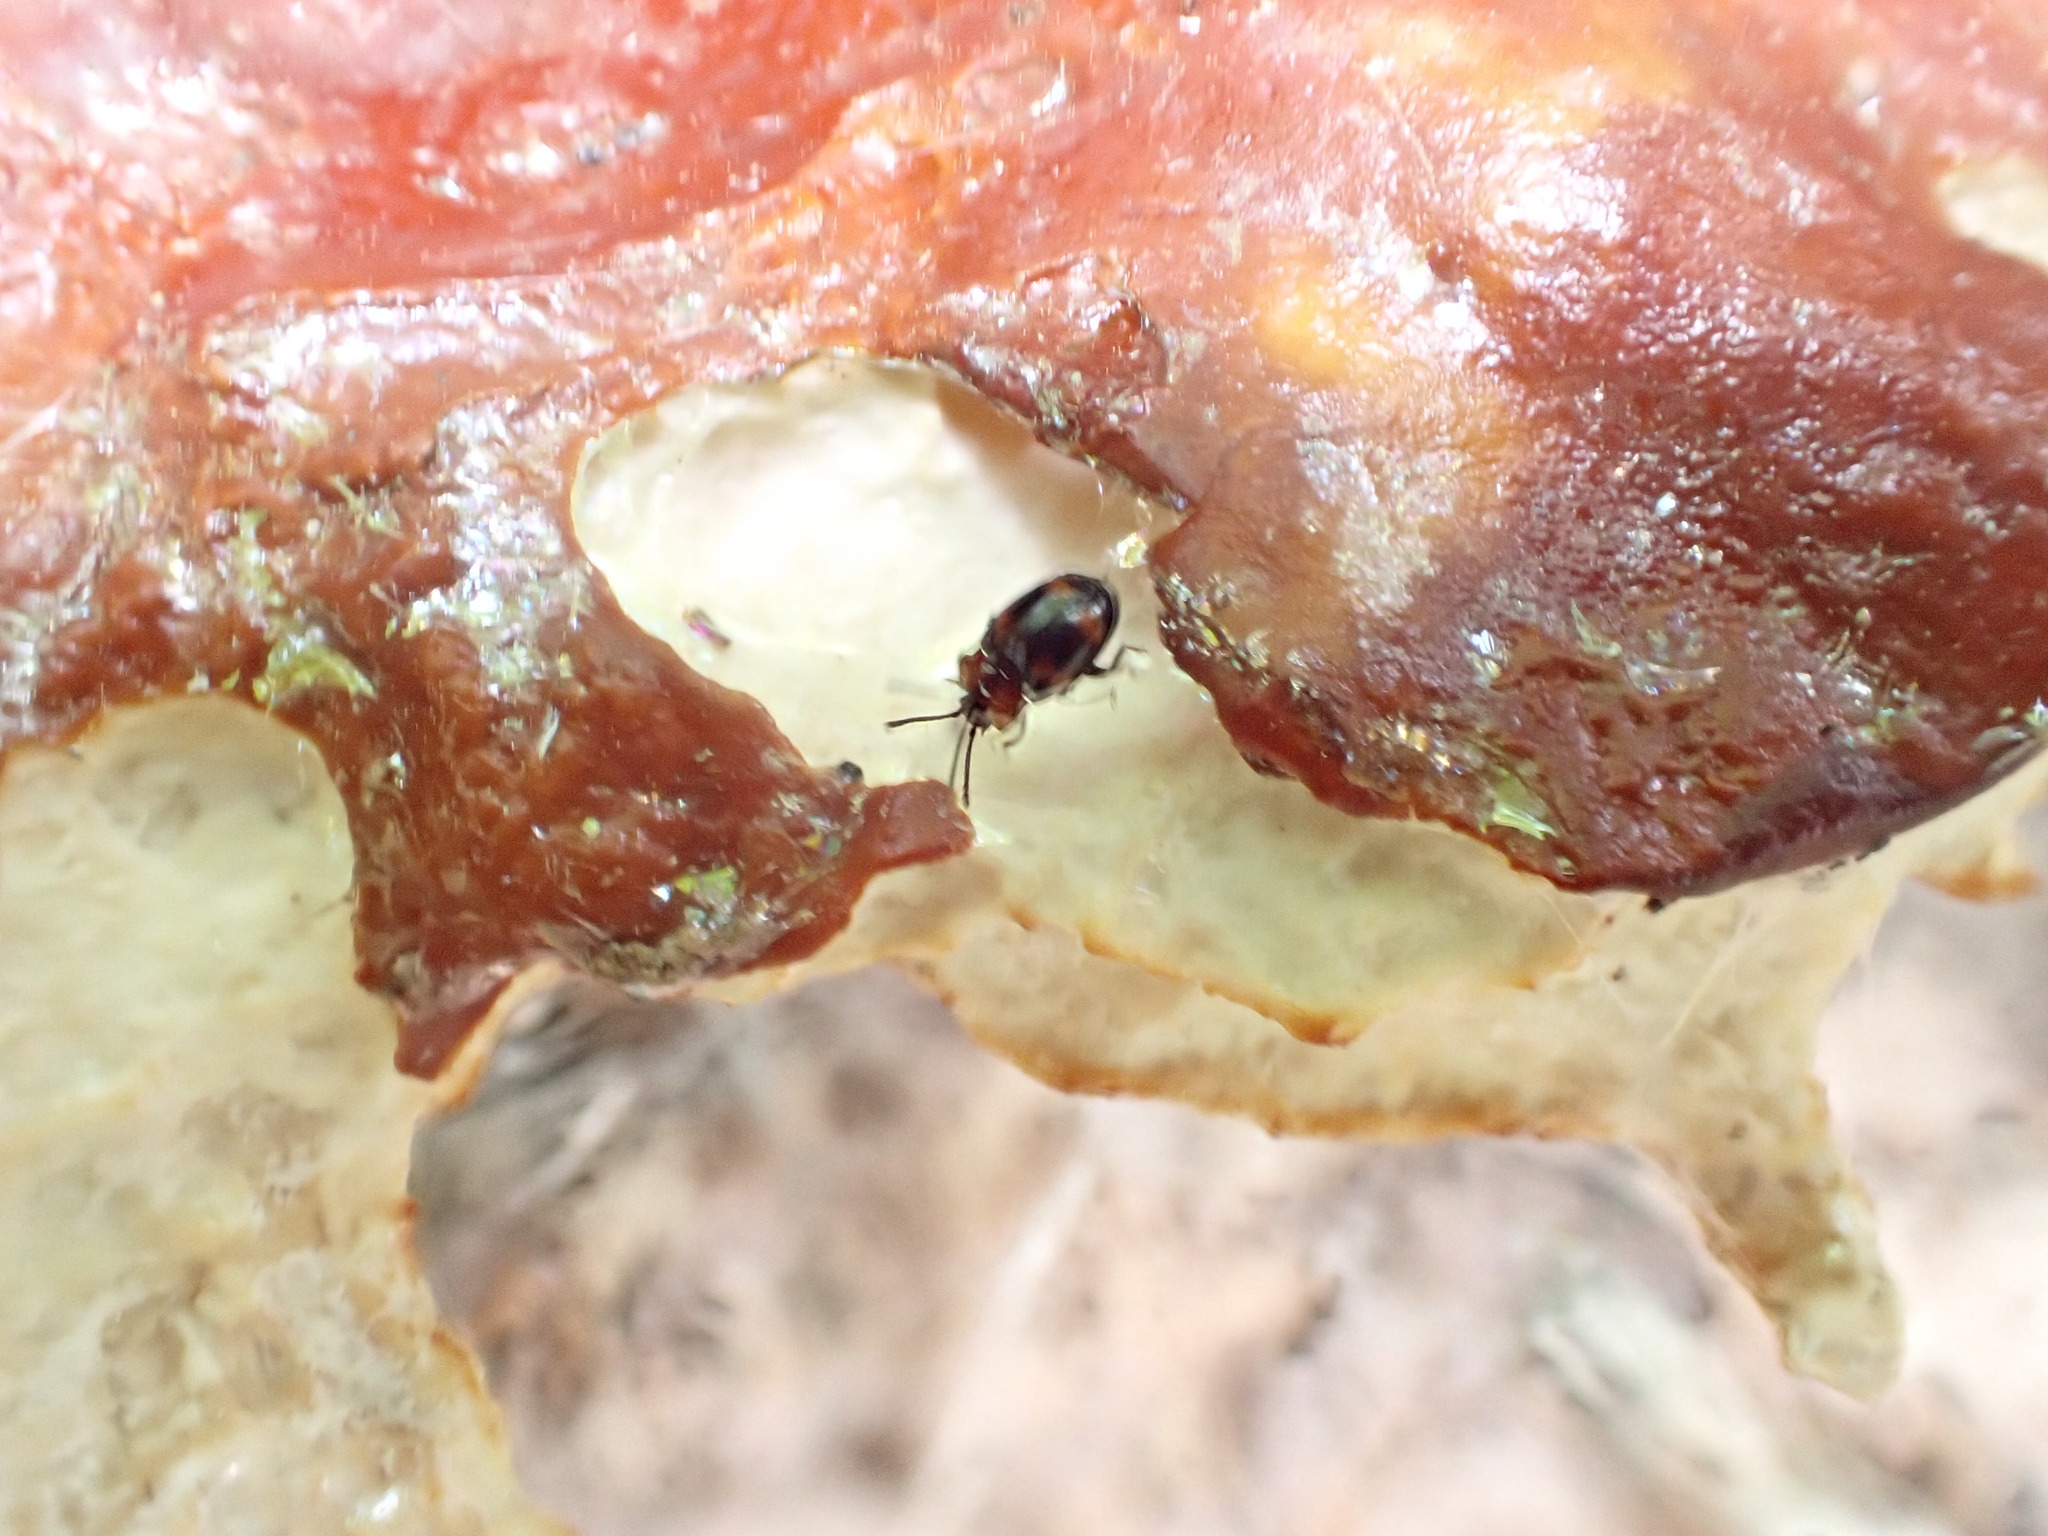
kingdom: Animalia
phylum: Arthropoda
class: Insecta
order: Coleoptera
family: Endomychidae
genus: Mycetina
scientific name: Mycetina perpulchra
